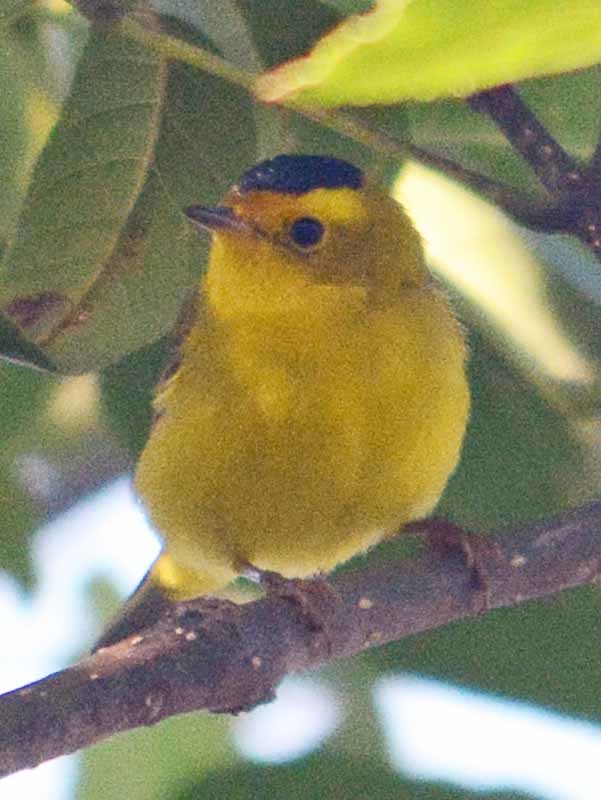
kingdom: Animalia
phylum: Chordata
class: Aves
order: Passeriformes
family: Parulidae
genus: Cardellina
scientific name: Cardellina pusilla
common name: Wilson's warbler
